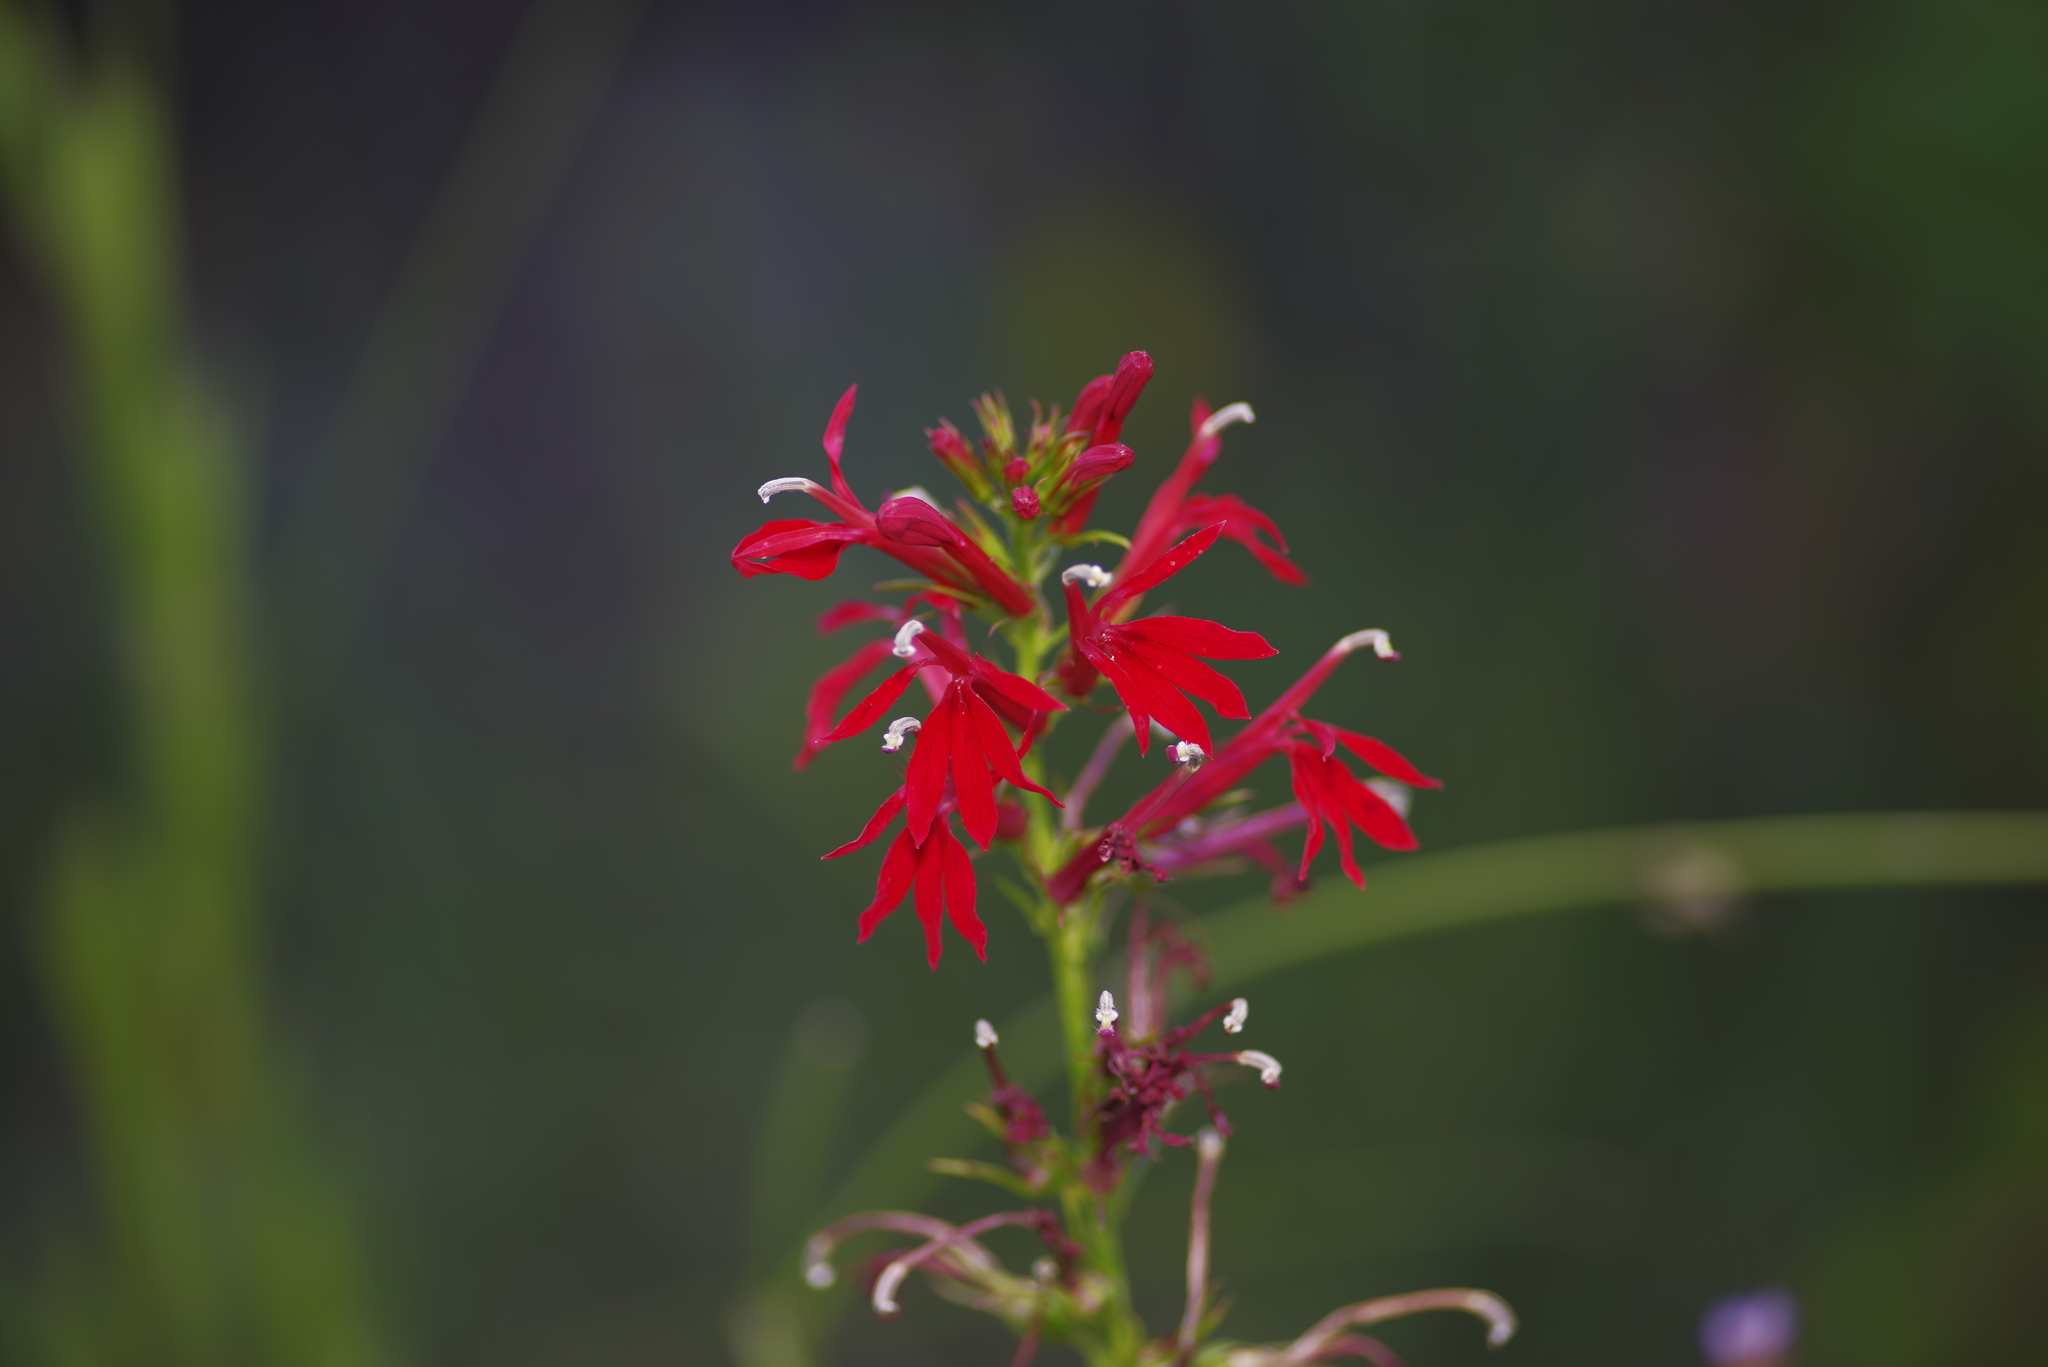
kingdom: Plantae
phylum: Tracheophyta
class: Magnoliopsida
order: Asterales
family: Campanulaceae
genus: Lobelia
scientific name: Lobelia cardinalis
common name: Cardinal flower
